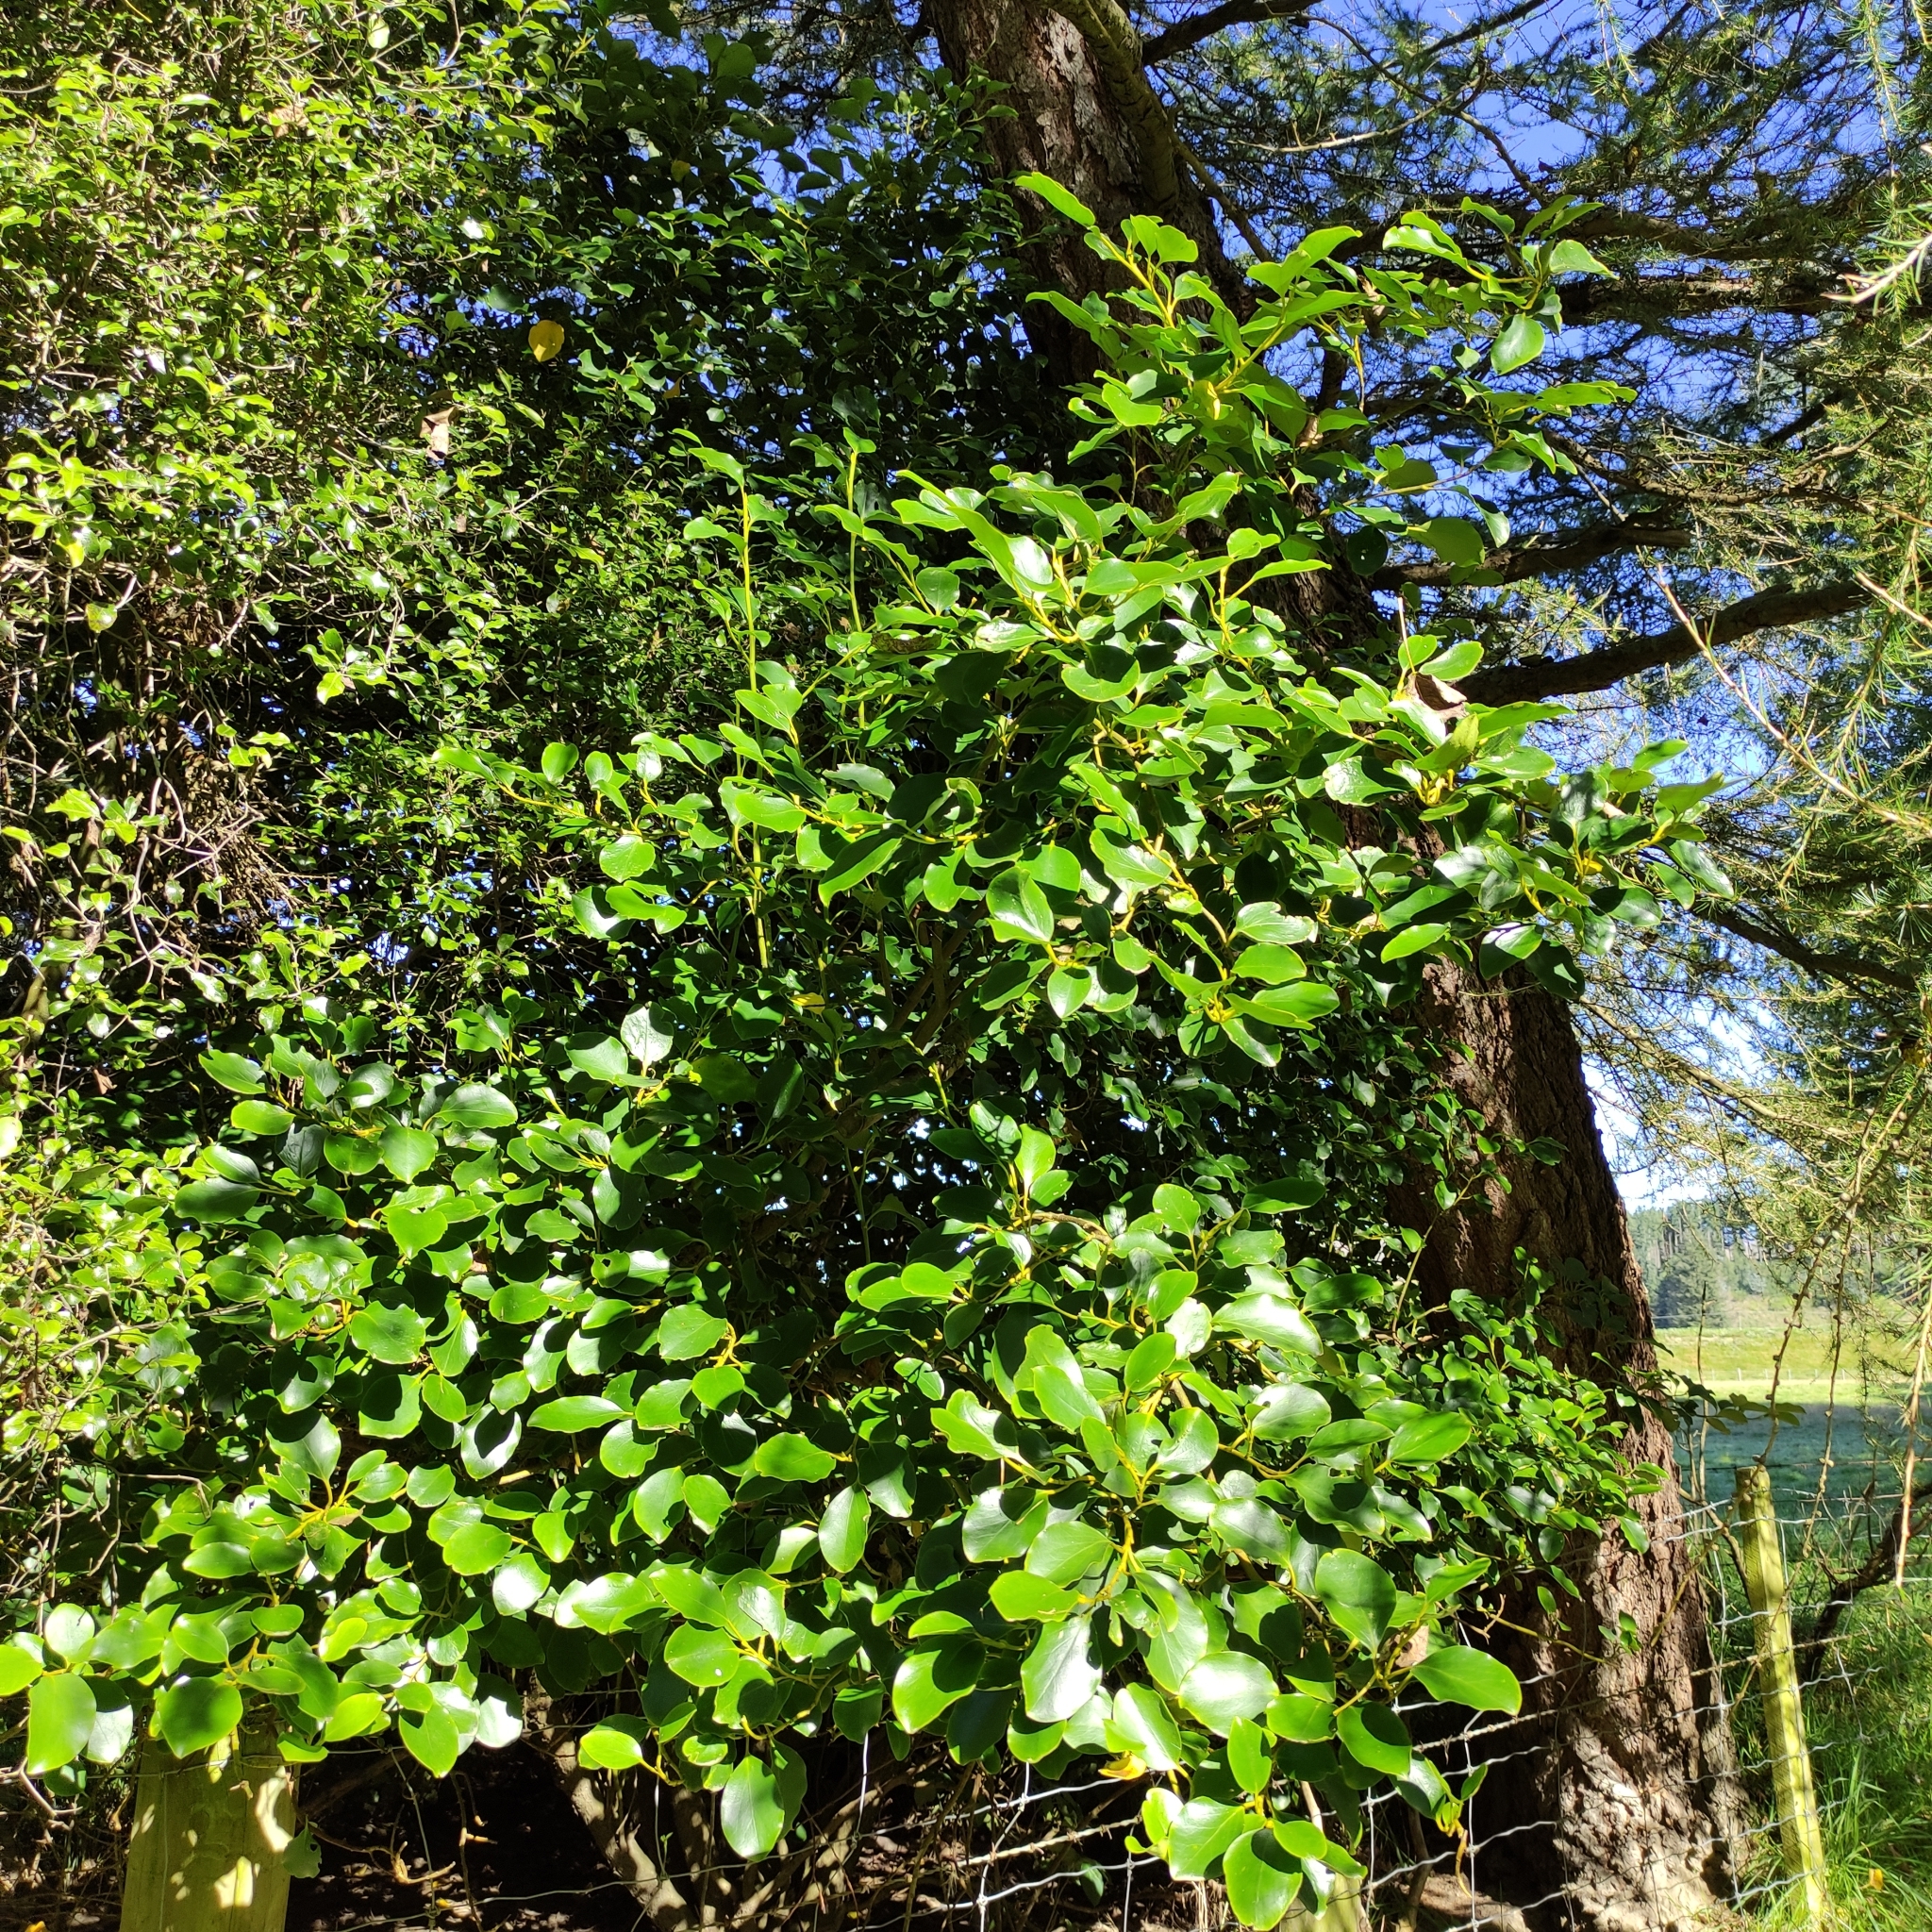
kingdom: Plantae
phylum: Tracheophyta
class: Magnoliopsida
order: Apiales
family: Griseliniaceae
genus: Griselinia
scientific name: Griselinia littoralis
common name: New zealand broadleaf
